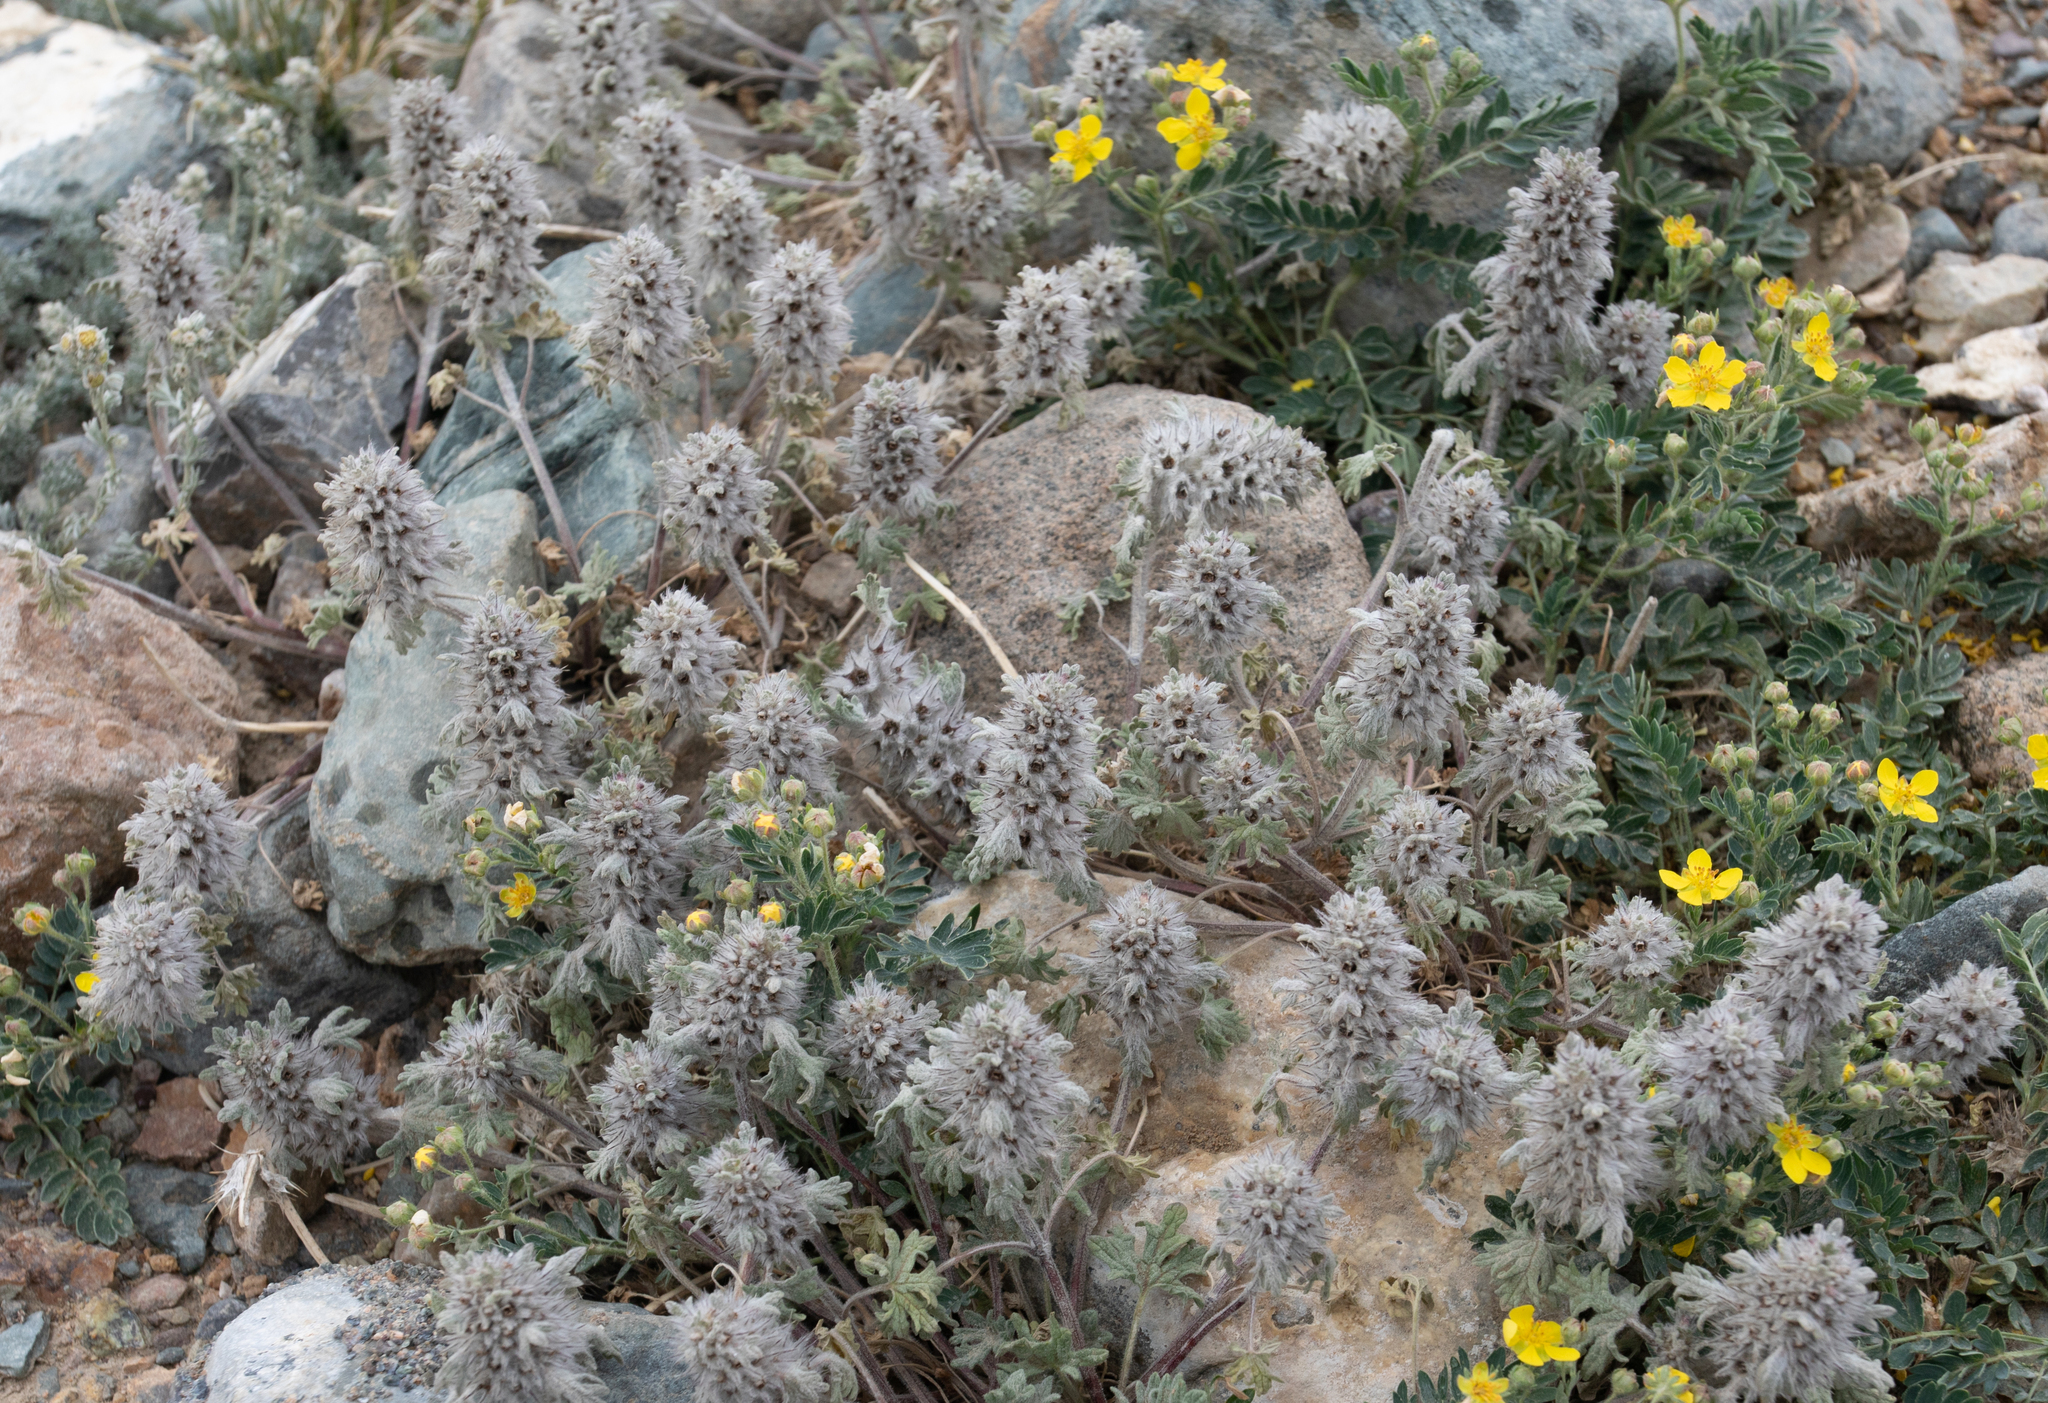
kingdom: Plantae
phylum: Tracheophyta
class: Magnoliopsida
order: Lamiales
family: Lamiaceae
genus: Ziziphora
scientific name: Ziziphora clinopodioides
